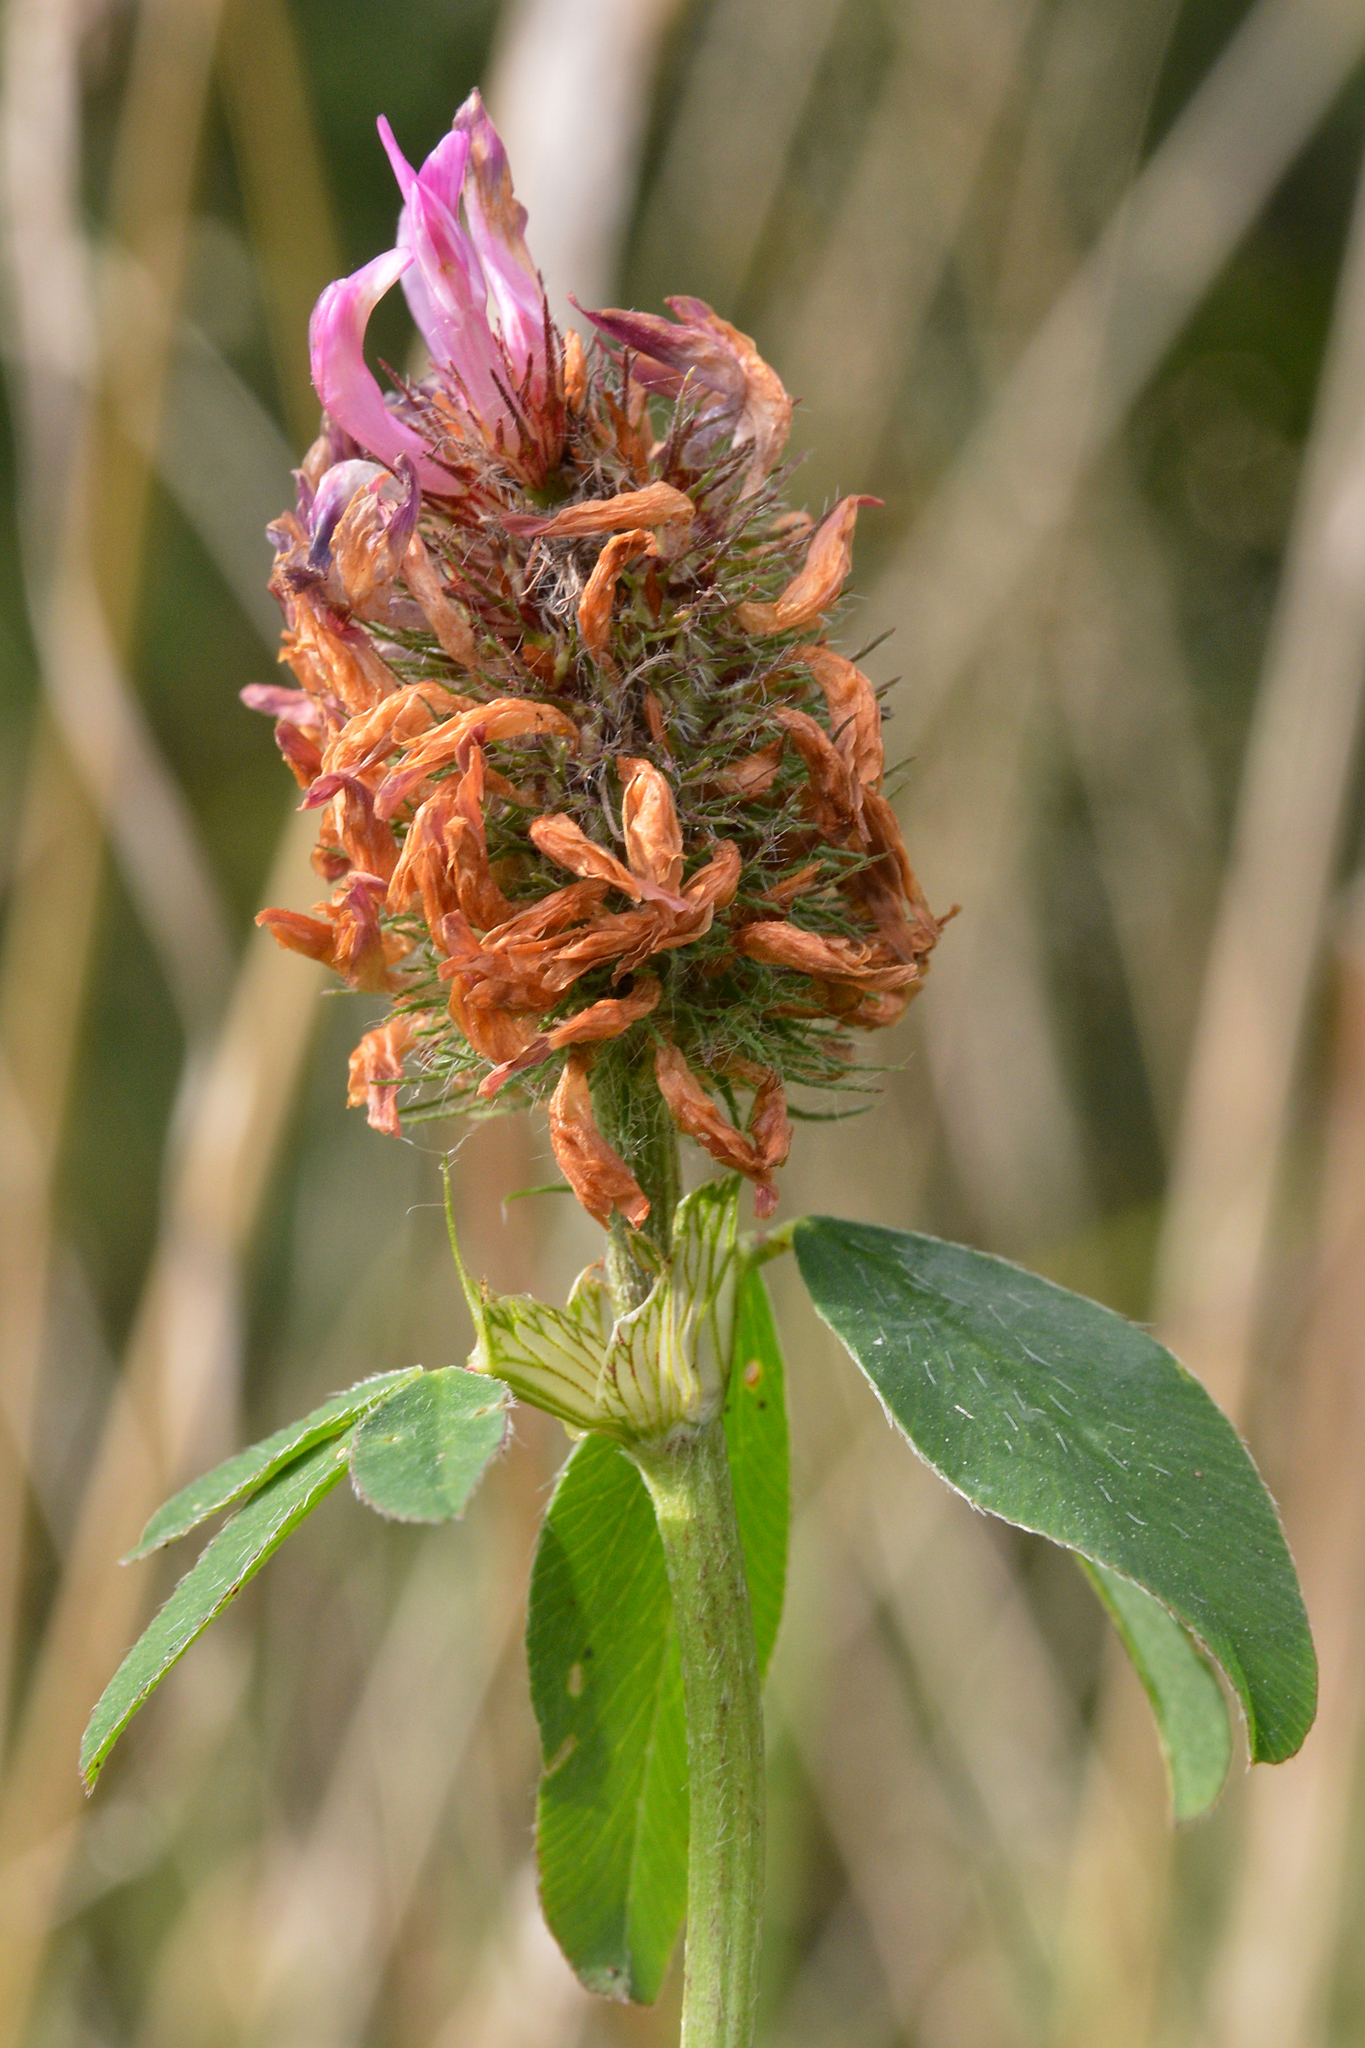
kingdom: Plantae
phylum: Tracheophyta
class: Magnoliopsida
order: Fabales
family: Fabaceae
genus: Trifolium
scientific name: Trifolium pratense
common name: Red clover
